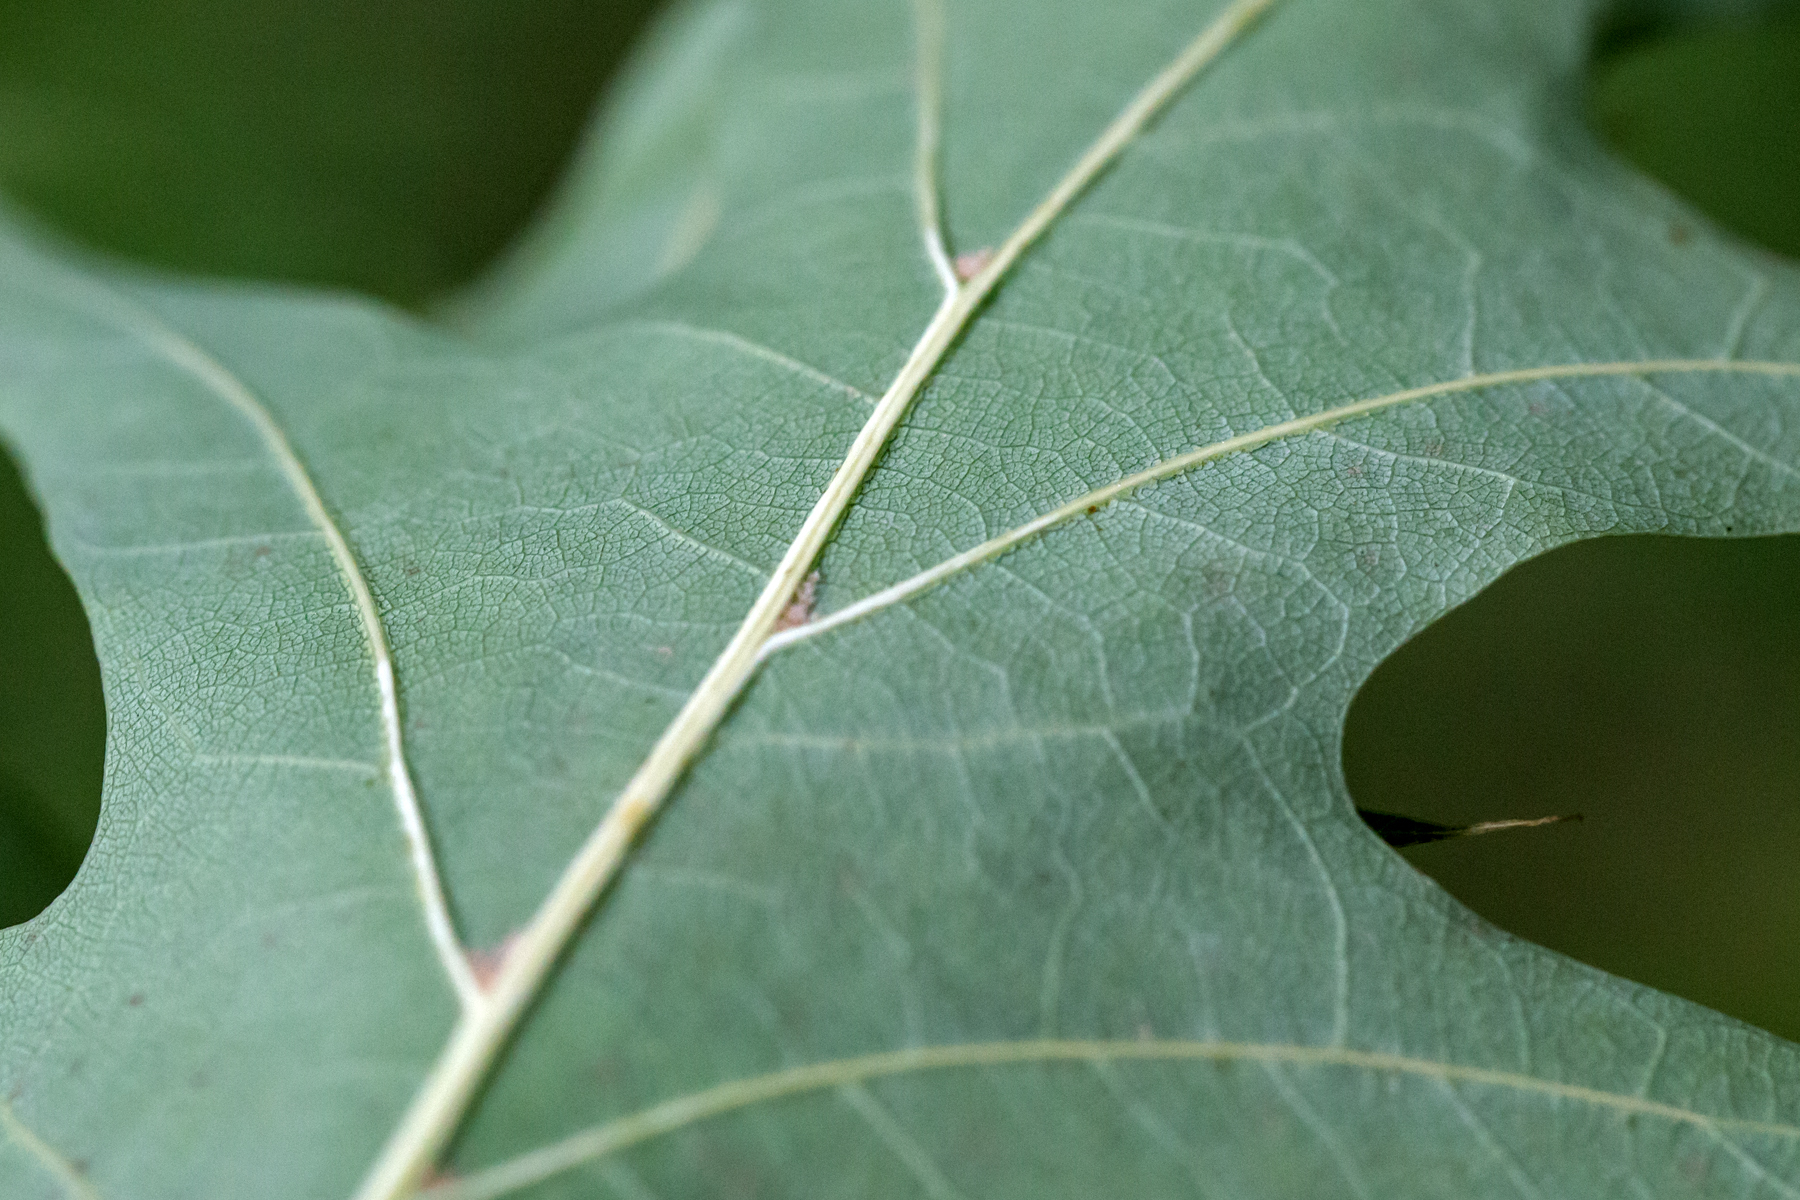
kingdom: Plantae
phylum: Tracheophyta
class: Magnoliopsida
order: Fagales
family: Fagaceae
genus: Quercus
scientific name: Quercus rubra
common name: Red oak
